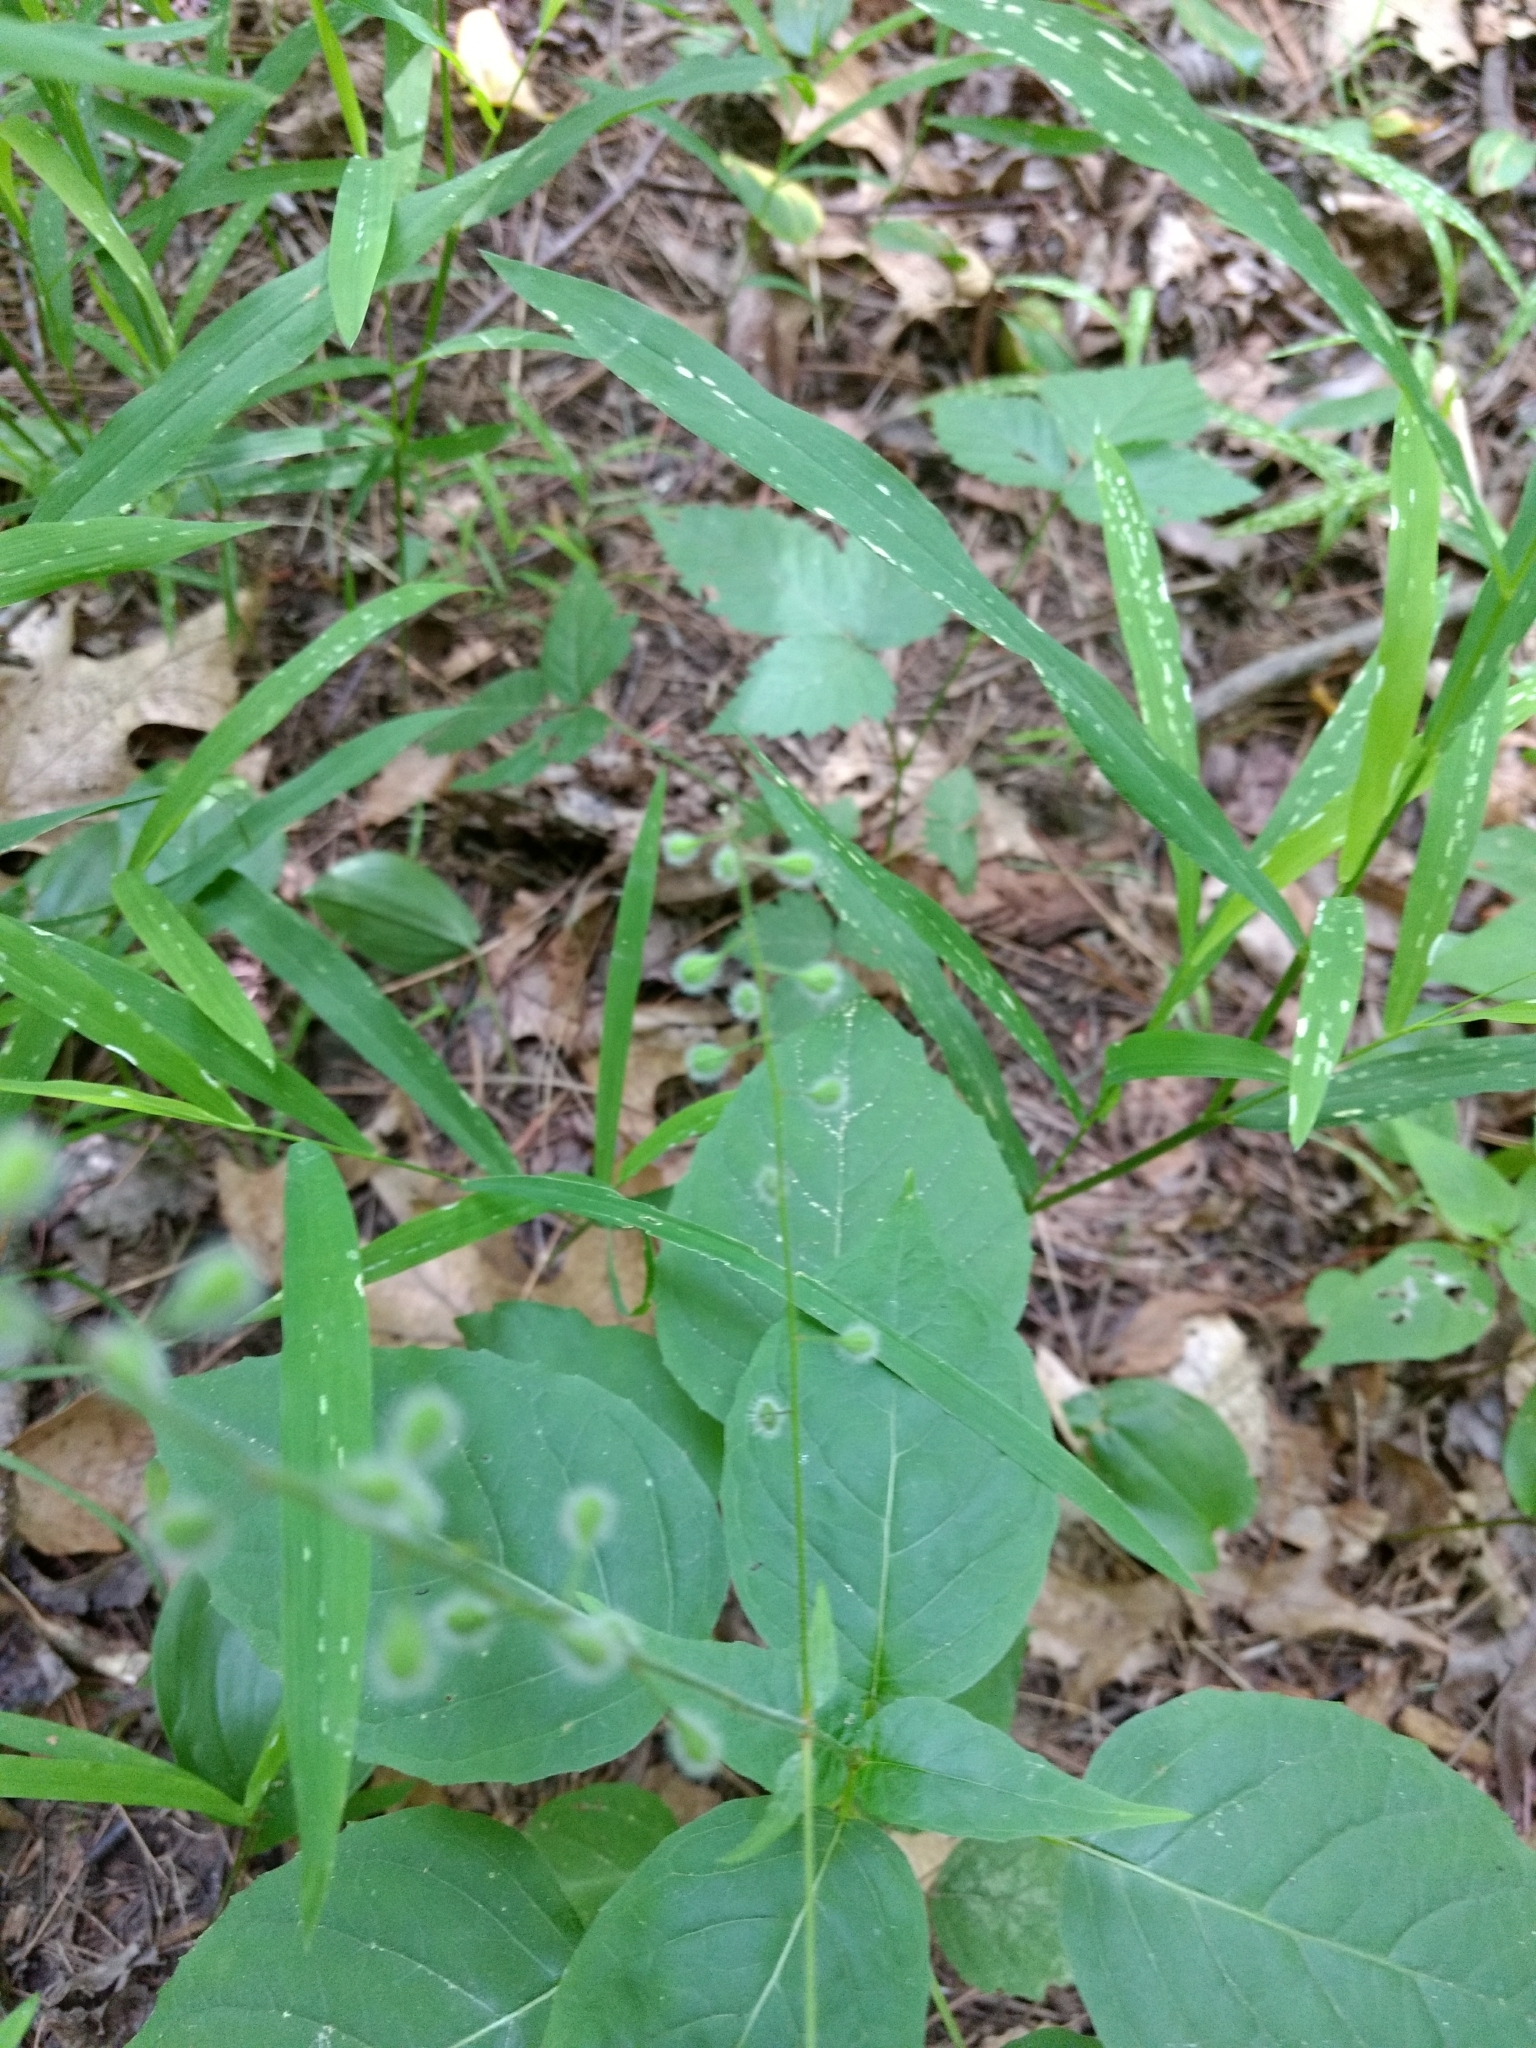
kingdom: Plantae
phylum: Tracheophyta
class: Magnoliopsida
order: Myrtales
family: Onagraceae
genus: Circaea
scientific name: Circaea canadensis
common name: Broad-leaved enchanter's nightshade
